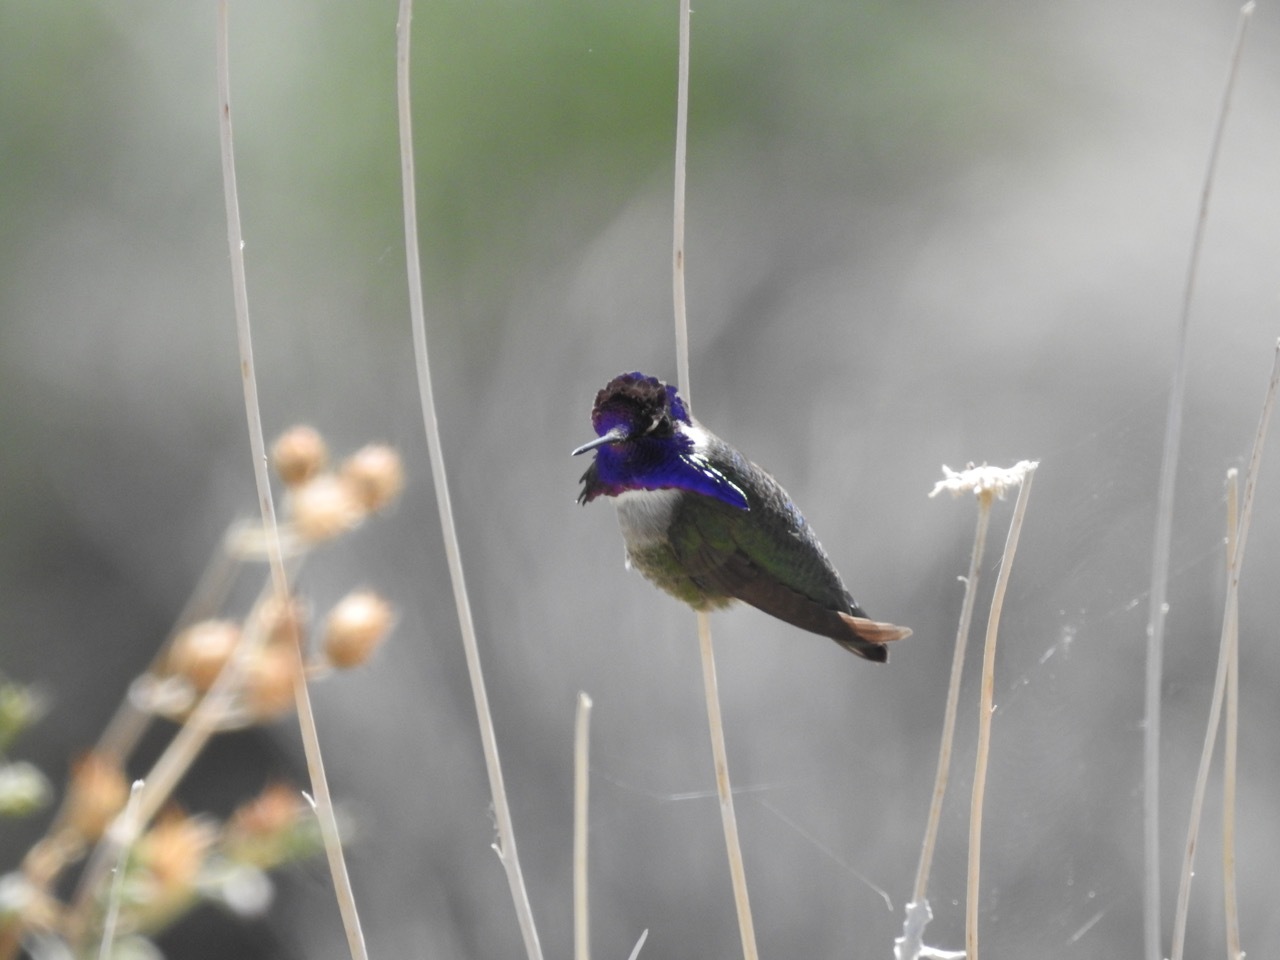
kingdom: Animalia
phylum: Chordata
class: Aves
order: Apodiformes
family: Trochilidae
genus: Calypte
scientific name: Calypte costae
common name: Costa's hummingbird
